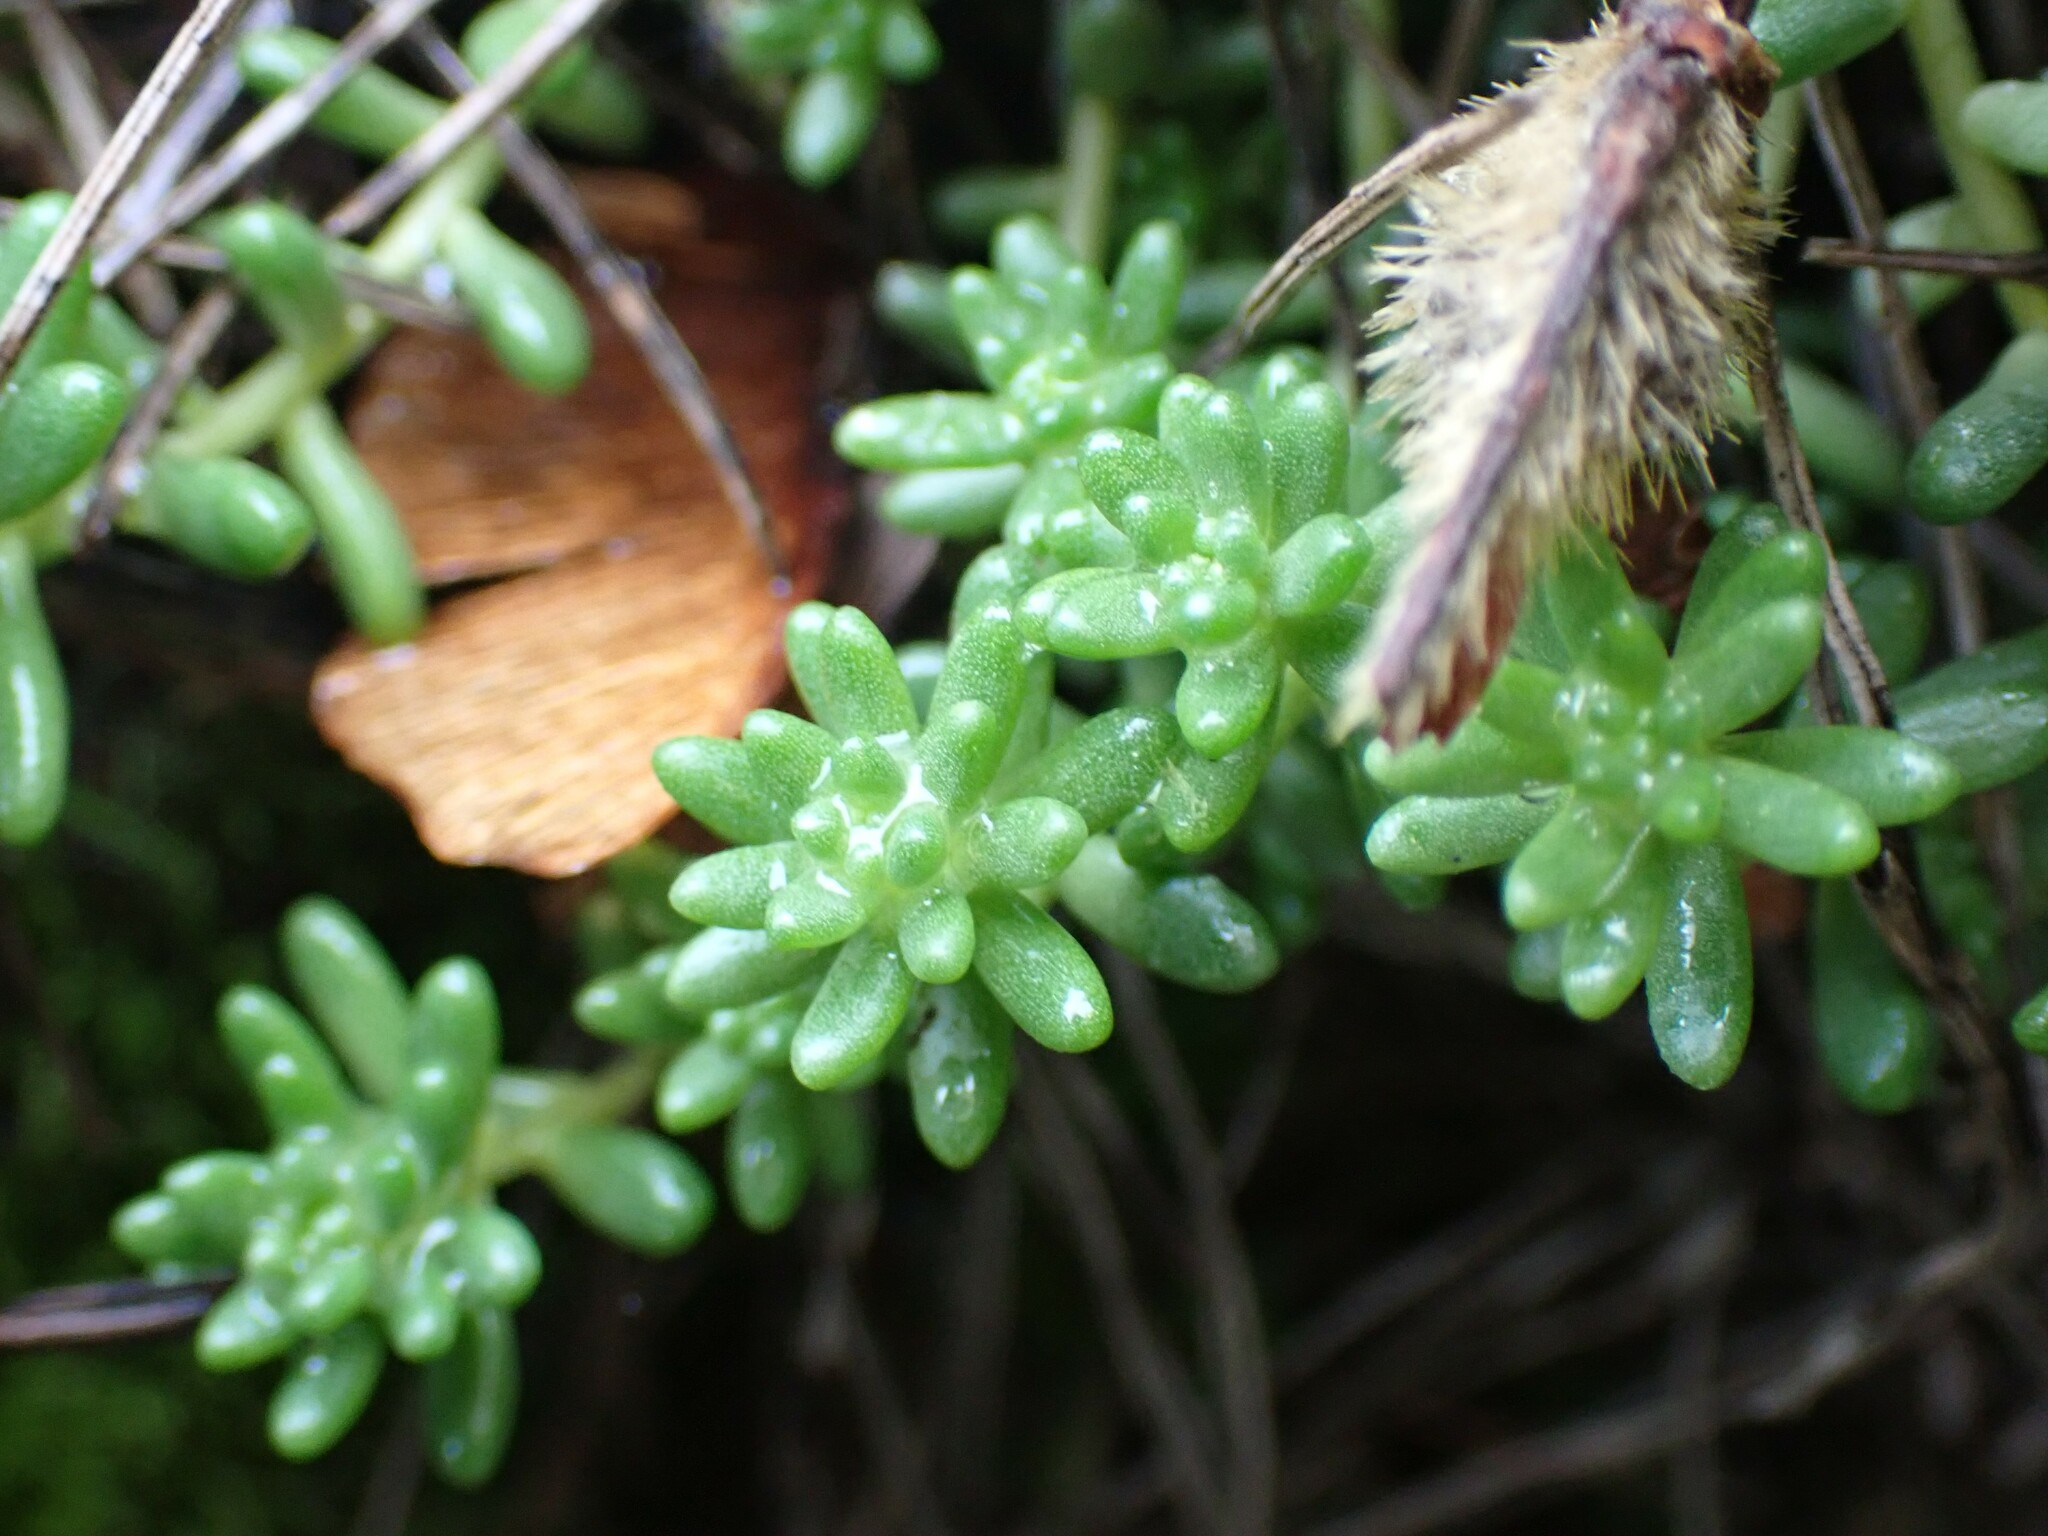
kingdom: Plantae
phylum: Tracheophyta
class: Magnoliopsida
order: Saxifragales
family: Crassulaceae
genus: Sedum
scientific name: Sedum album
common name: White stonecrop
